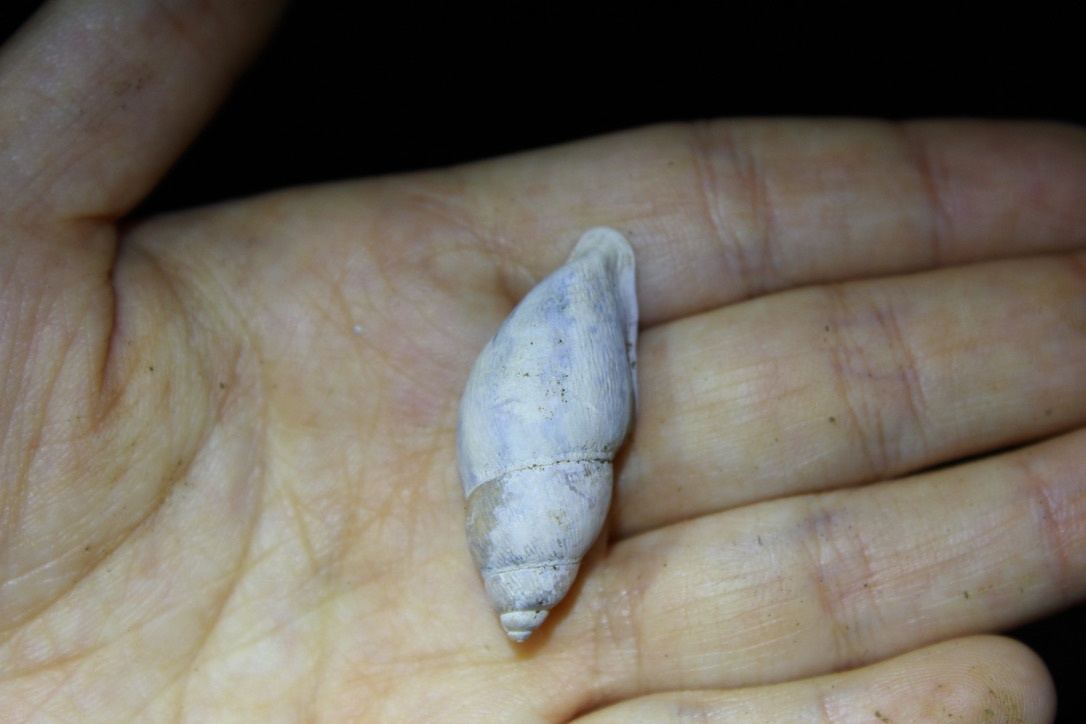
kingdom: Animalia
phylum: Mollusca
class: Gastropoda
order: Stylommatophora
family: Amphibulimidae
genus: Plekocheilus
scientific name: Plekocheilus glaber
